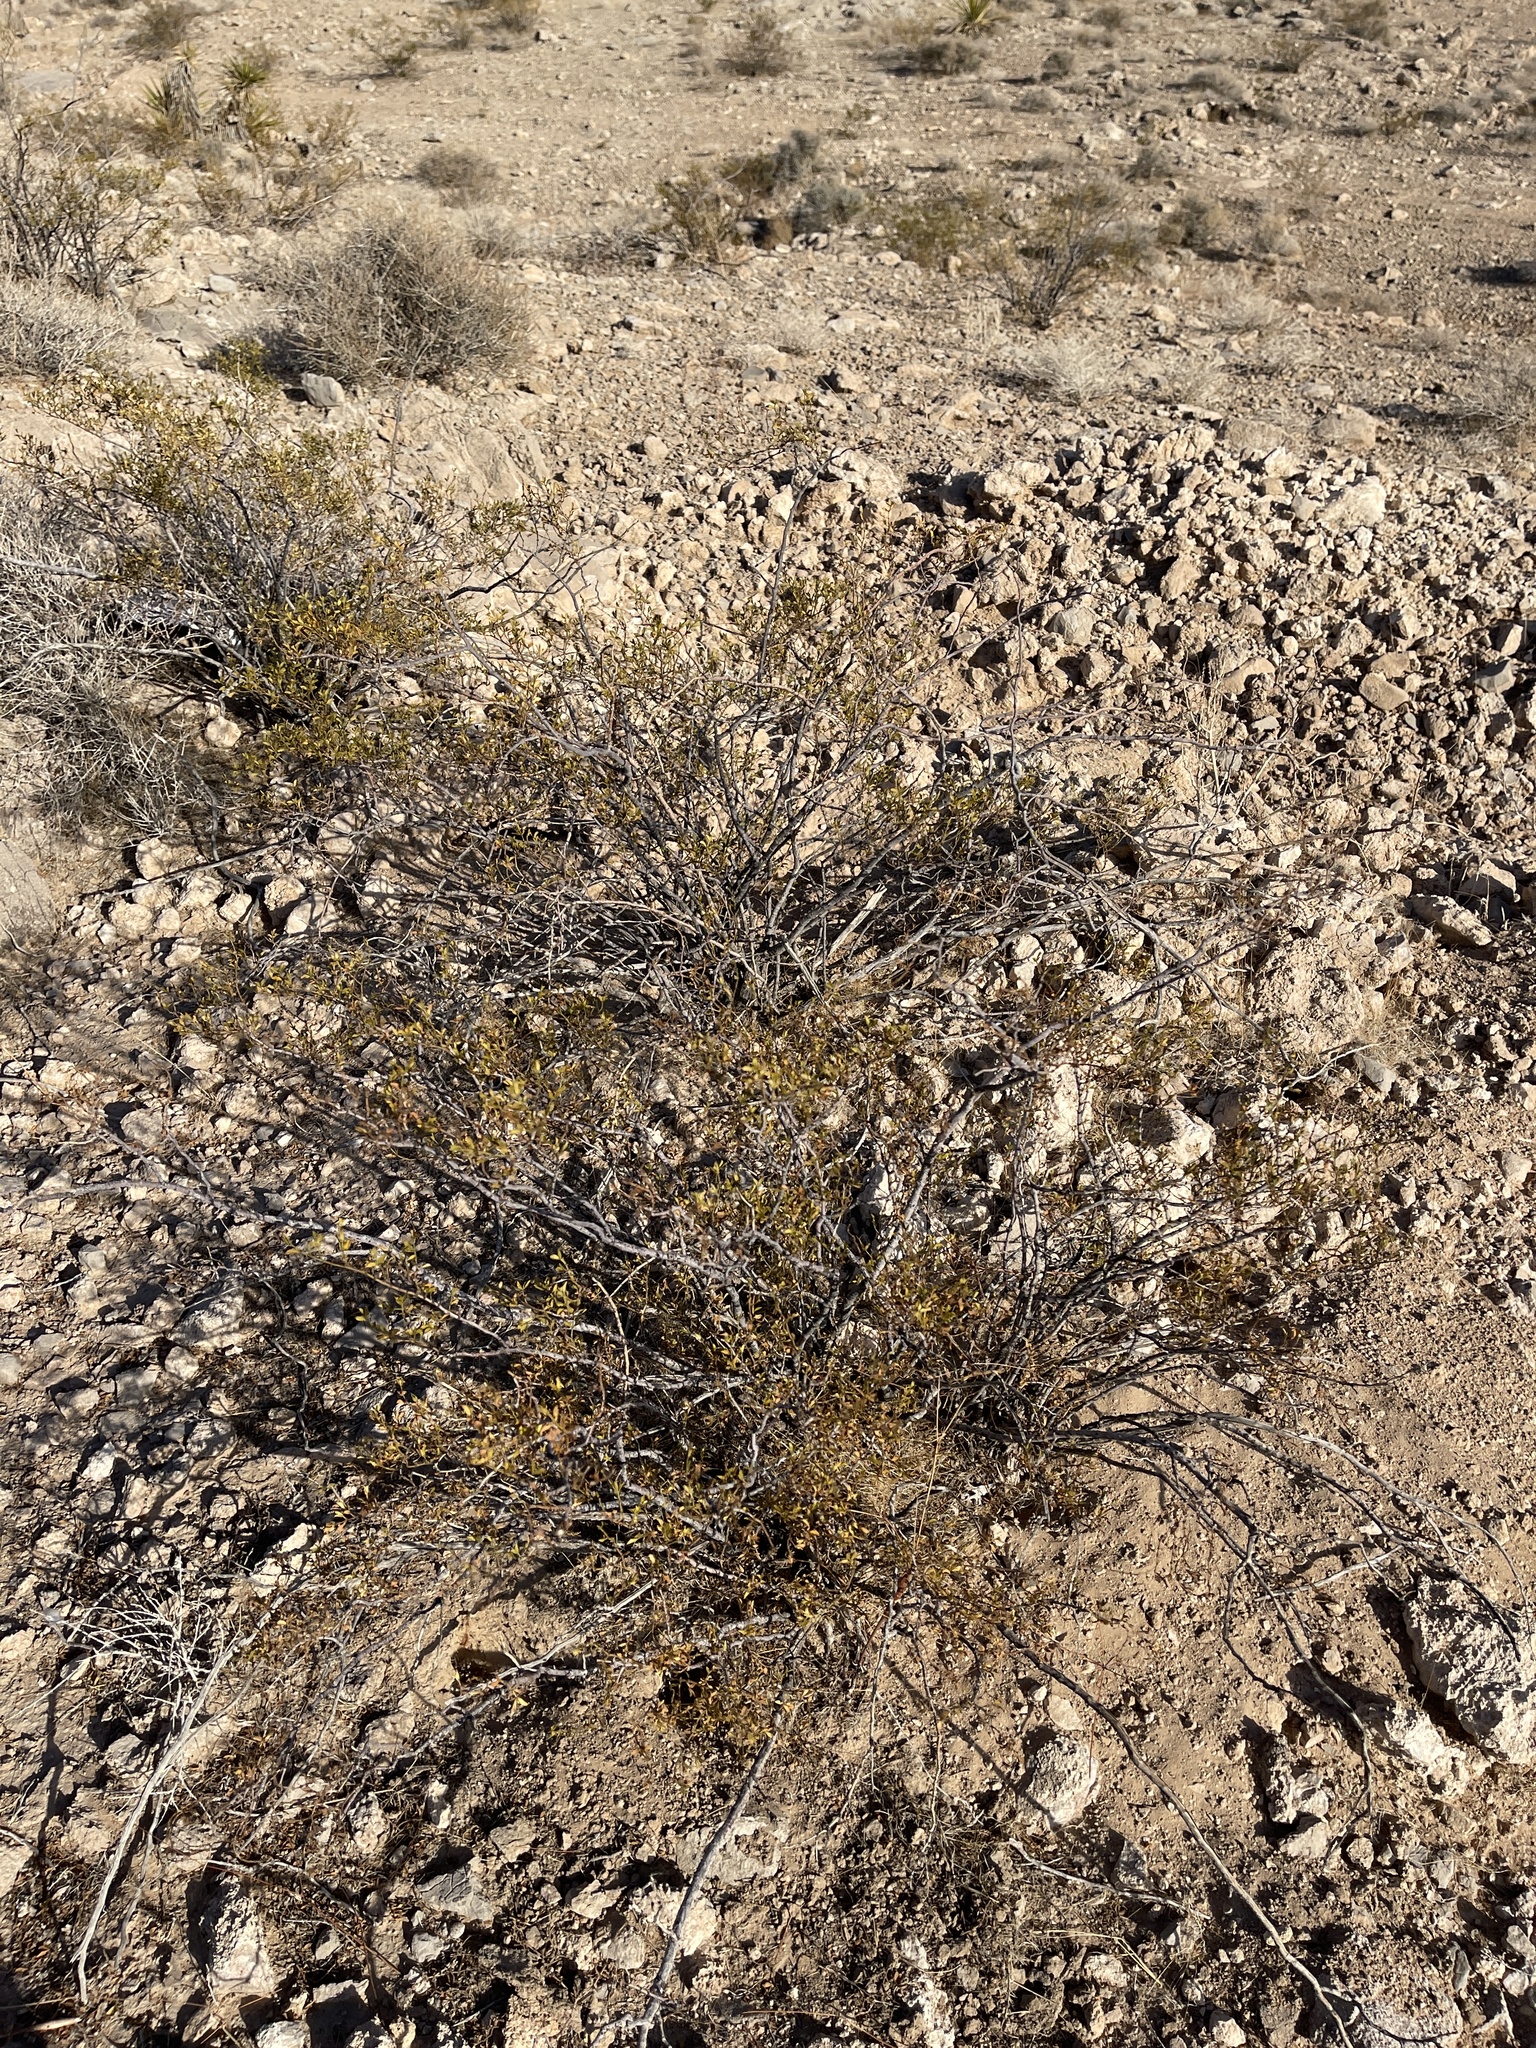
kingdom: Plantae
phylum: Tracheophyta
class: Magnoliopsida
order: Zygophyllales
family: Zygophyllaceae
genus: Larrea
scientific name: Larrea tridentata
